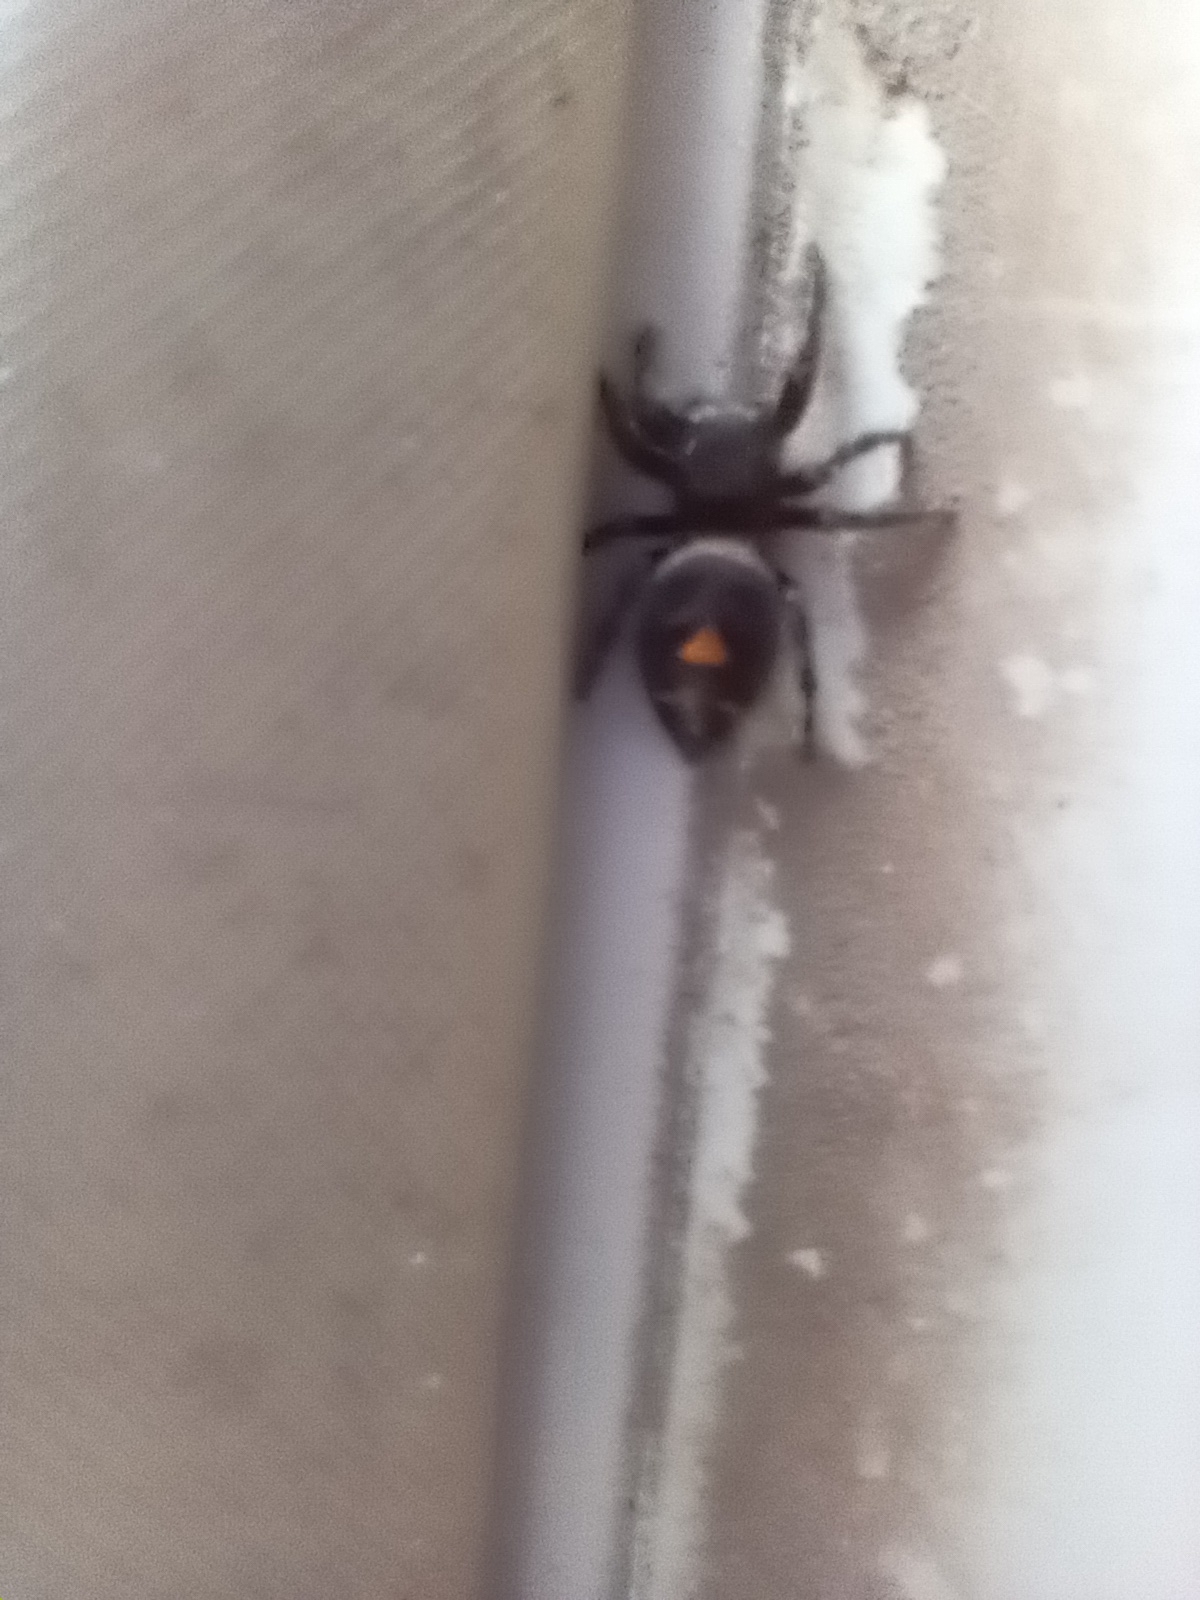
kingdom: Animalia
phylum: Arthropoda
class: Arachnida
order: Araneae
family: Salticidae
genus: Phidippus
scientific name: Phidippus audax
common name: Bold jumper
